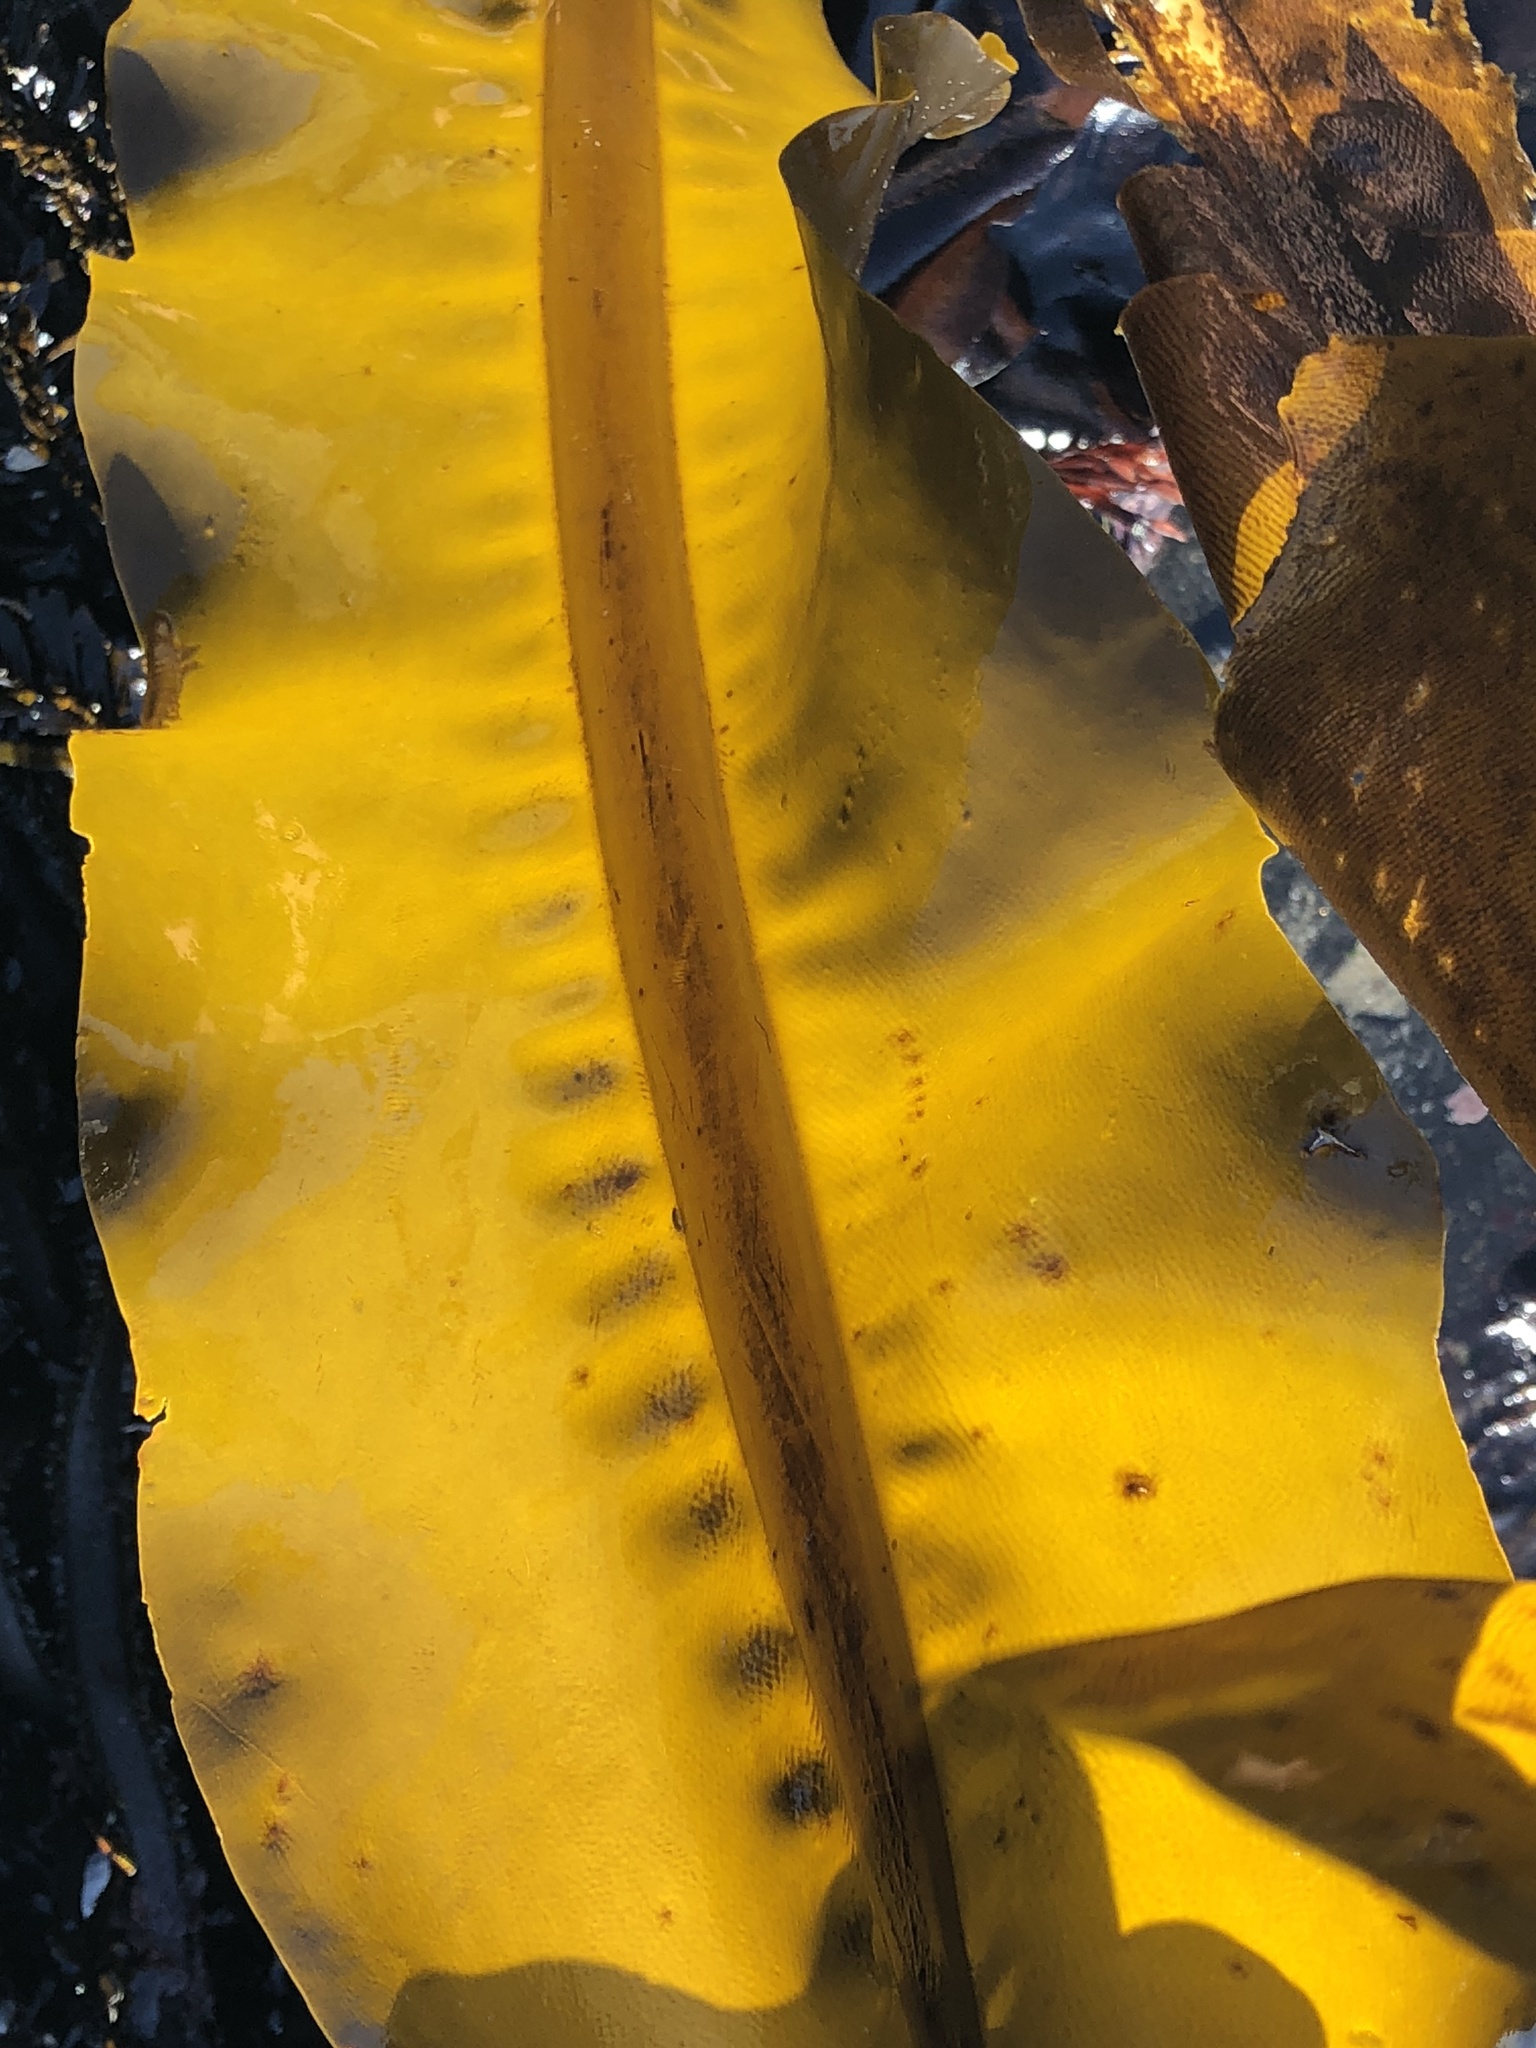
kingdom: Chromista
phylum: Ochrophyta
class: Phaeophyceae
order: Laminariales
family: Alariaceae
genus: Alaria
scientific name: Alaria marginata
